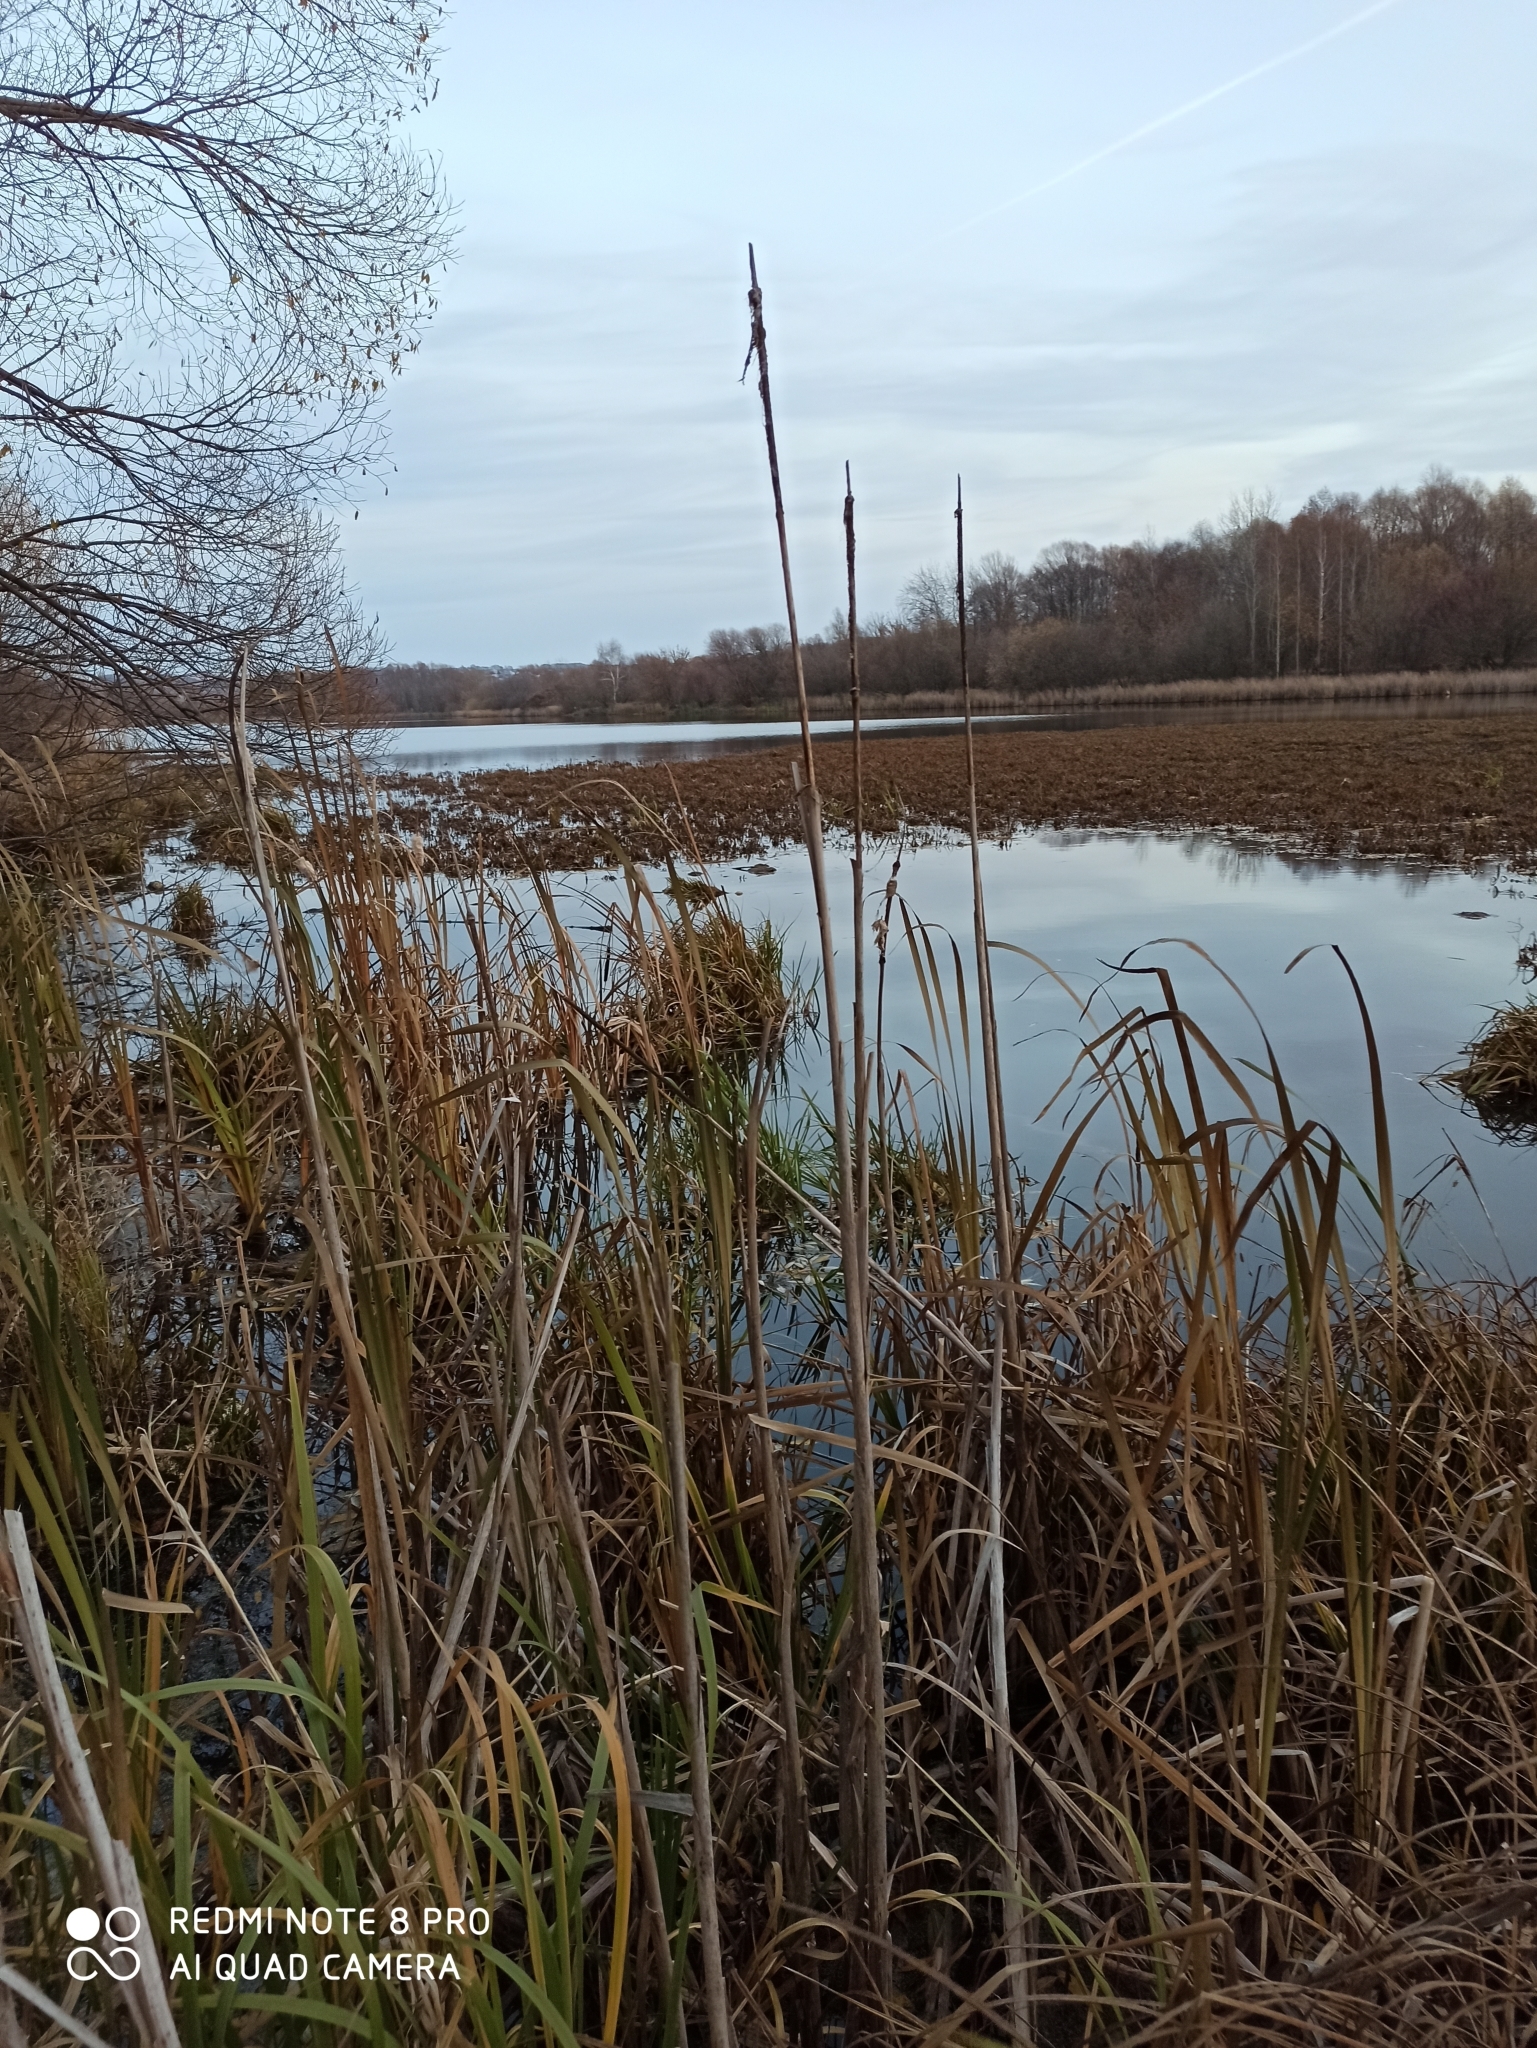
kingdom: Plantae
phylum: Tracheophyta
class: Liliopsida
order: Poales
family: Typhaceae
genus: Typha
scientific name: Typha angustifolia
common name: Lesser bulrush
